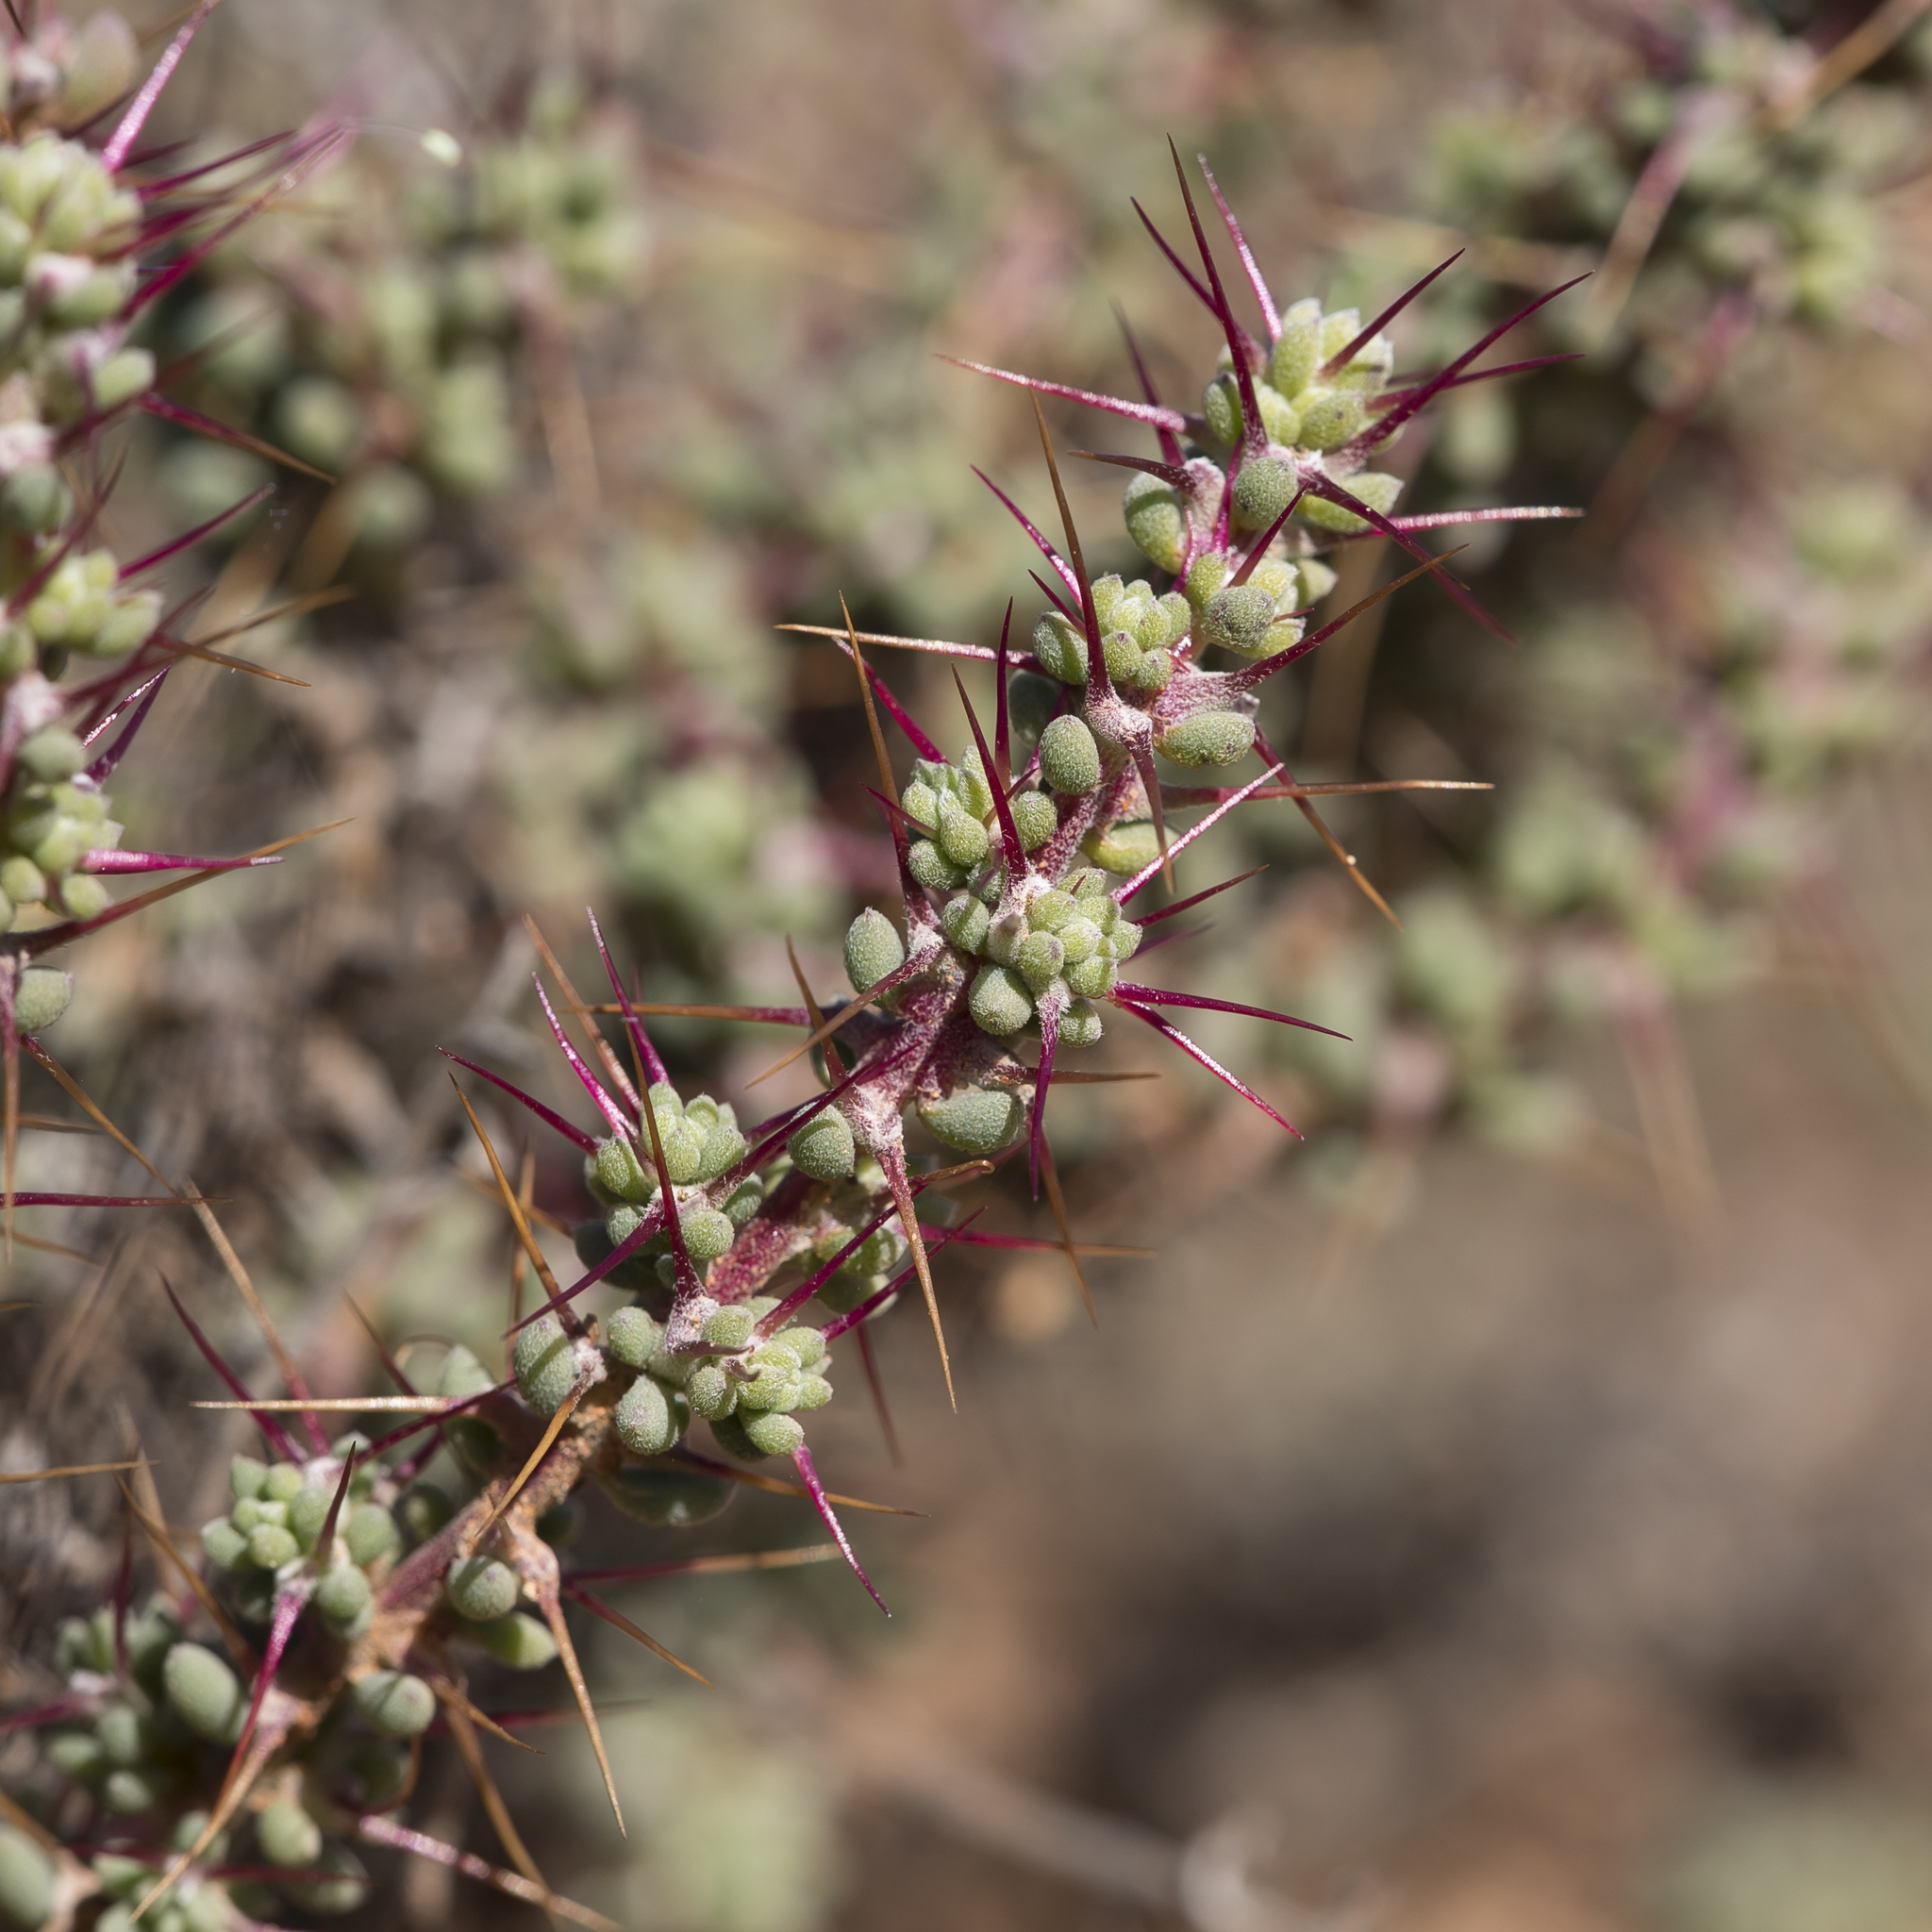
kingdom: Plantae
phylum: Tracheophyta
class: Magnoliopsida
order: Caryophyllales
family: Amaranthaceae
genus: Sclerolaena
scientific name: Sclerolaena brevifolia
